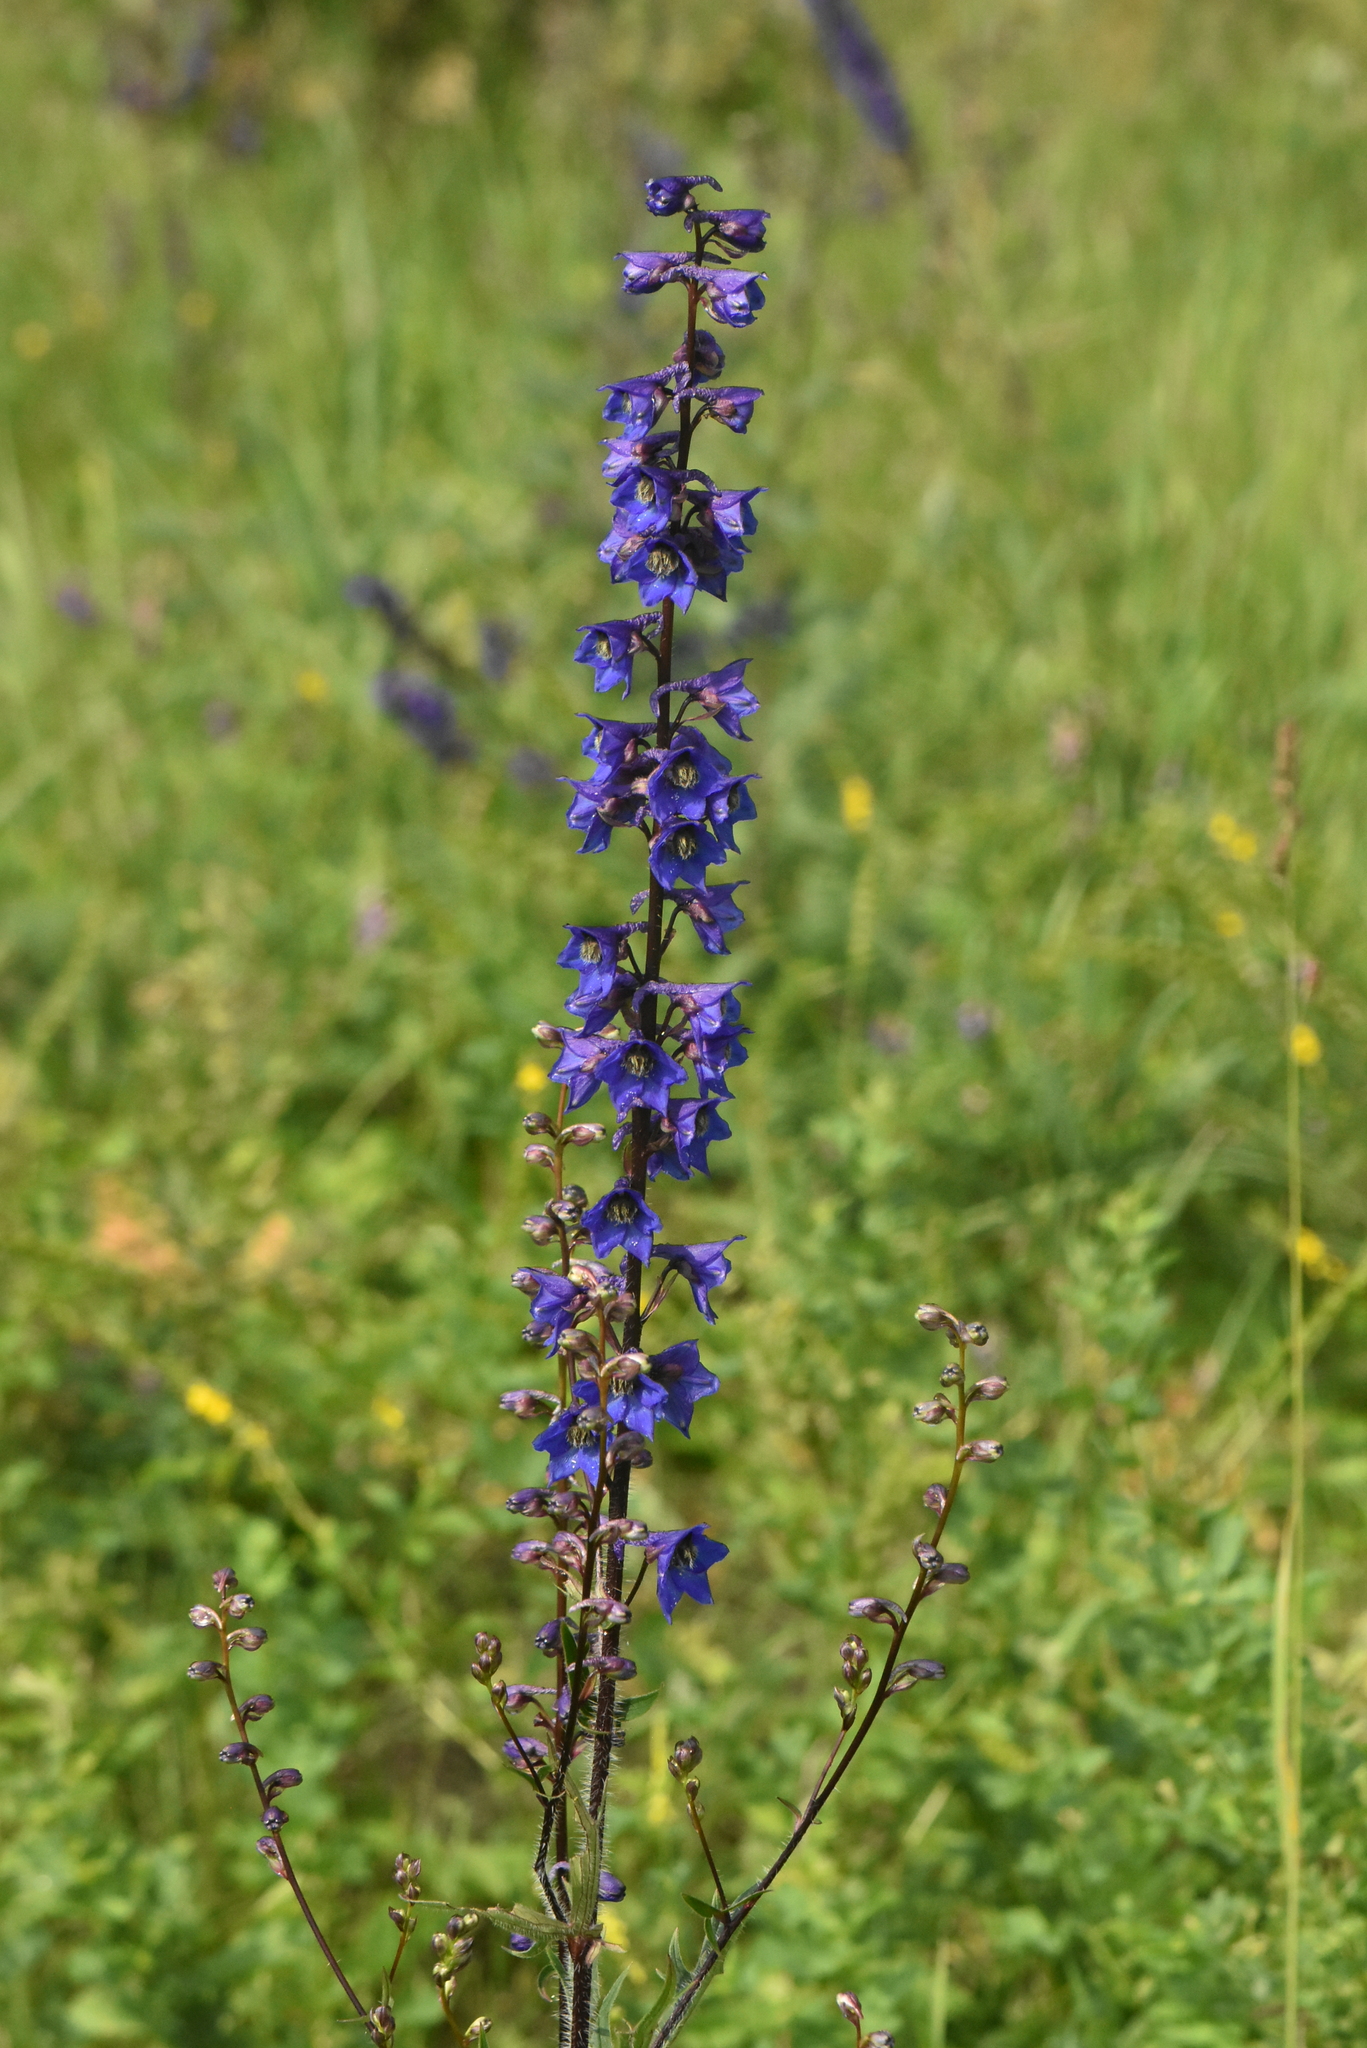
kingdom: Plantae
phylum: Tracheophyta
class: Magnoliopsida
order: Ranunculales
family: Ranunculaceae
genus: Delphinium
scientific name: Delphinium retropilosum
